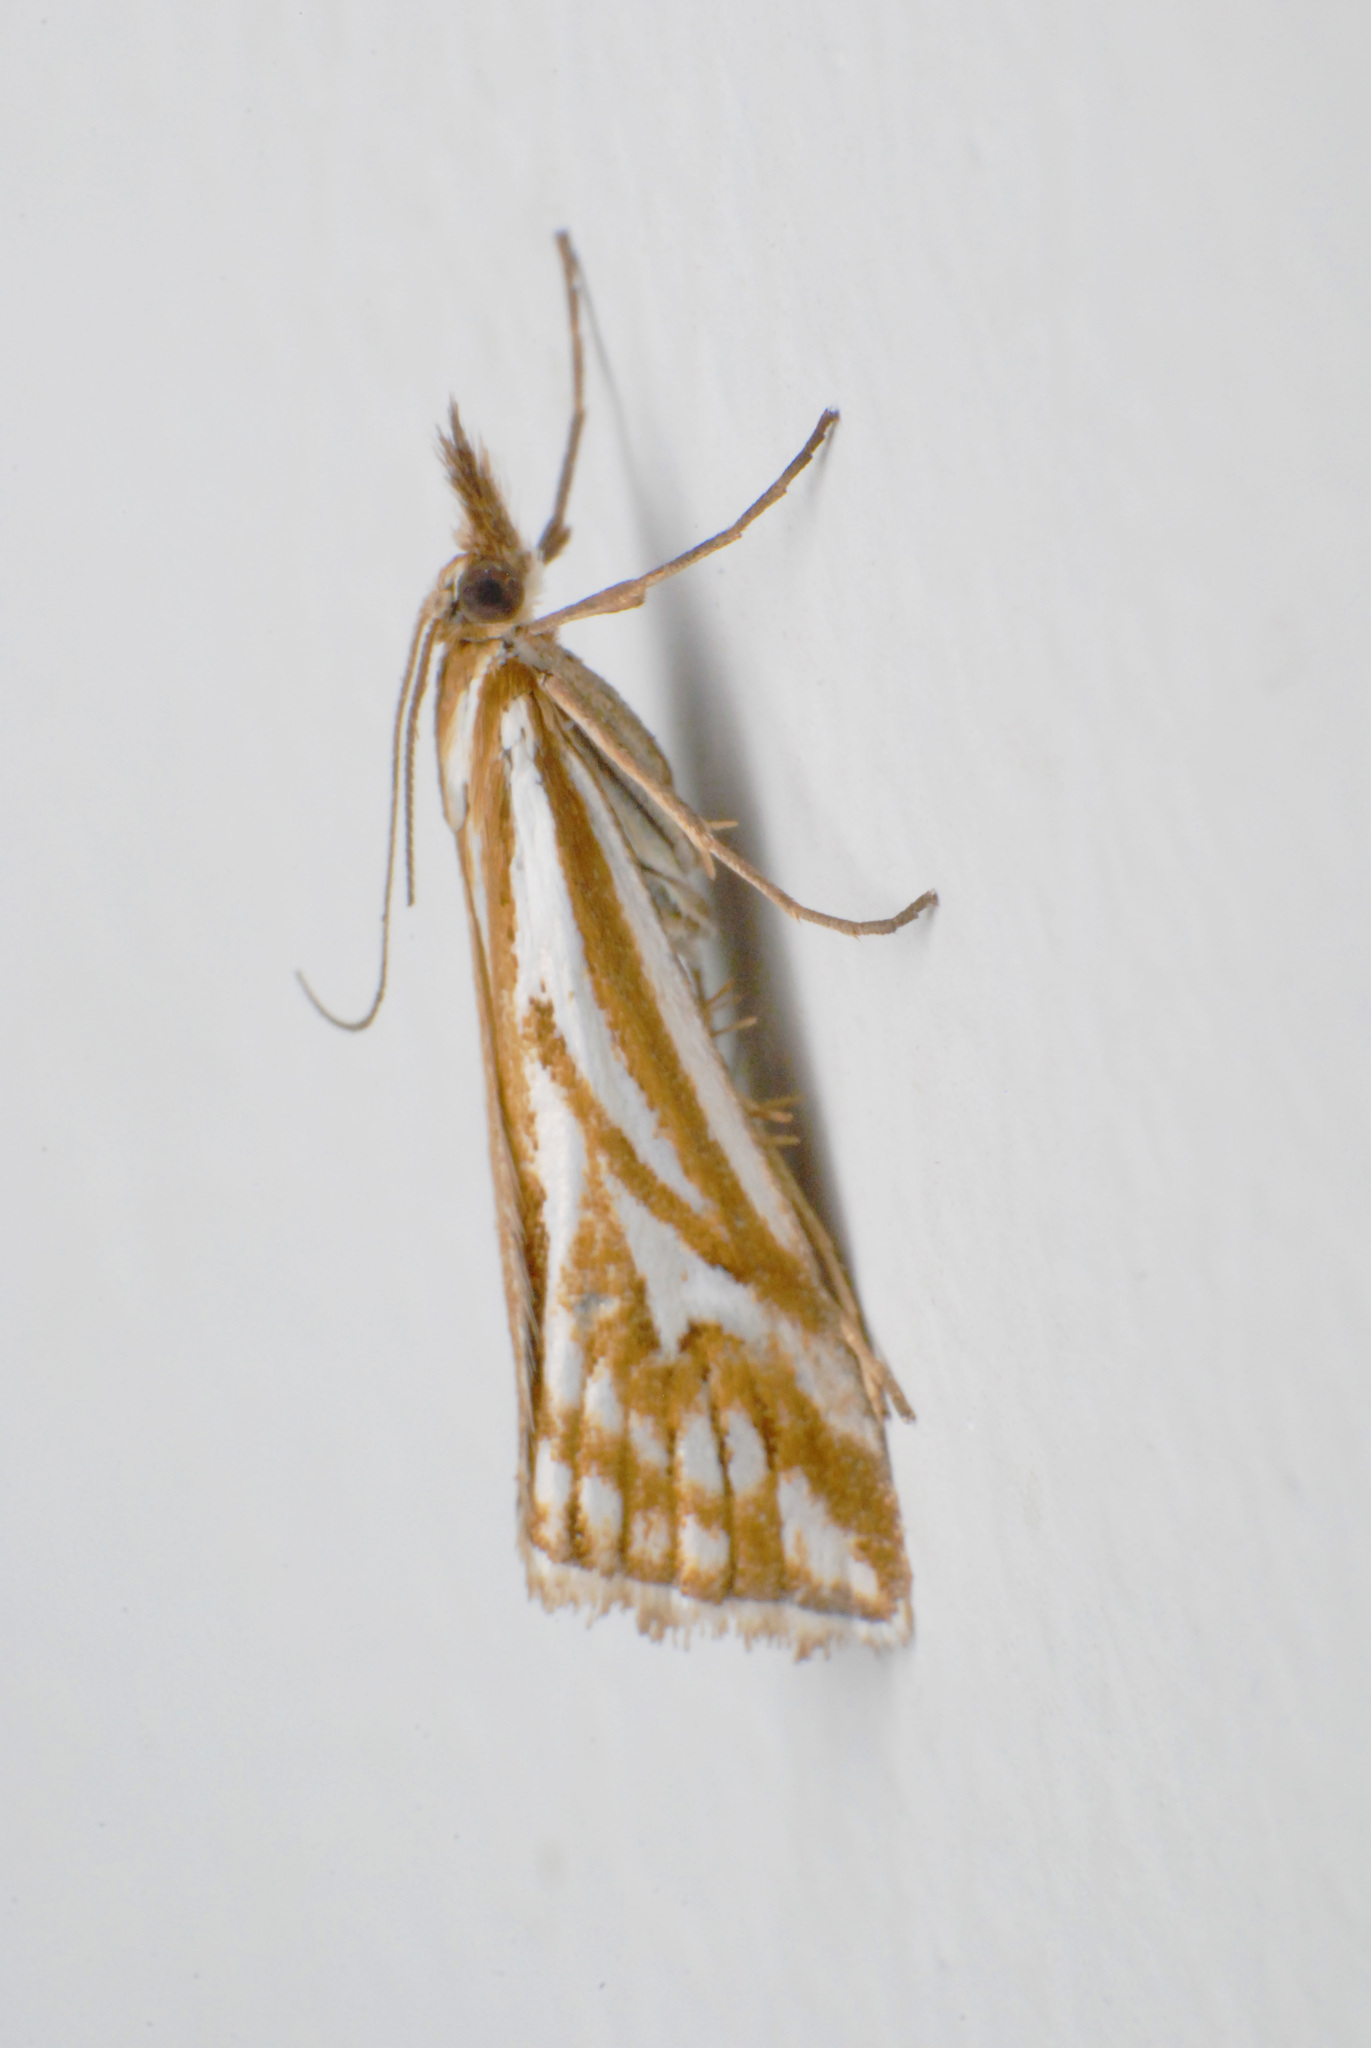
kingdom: Animalia
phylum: Arthropoda
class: Insecta
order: Lepidoptera
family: Crambidae
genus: Hednota
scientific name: Hednota pleniferellus
